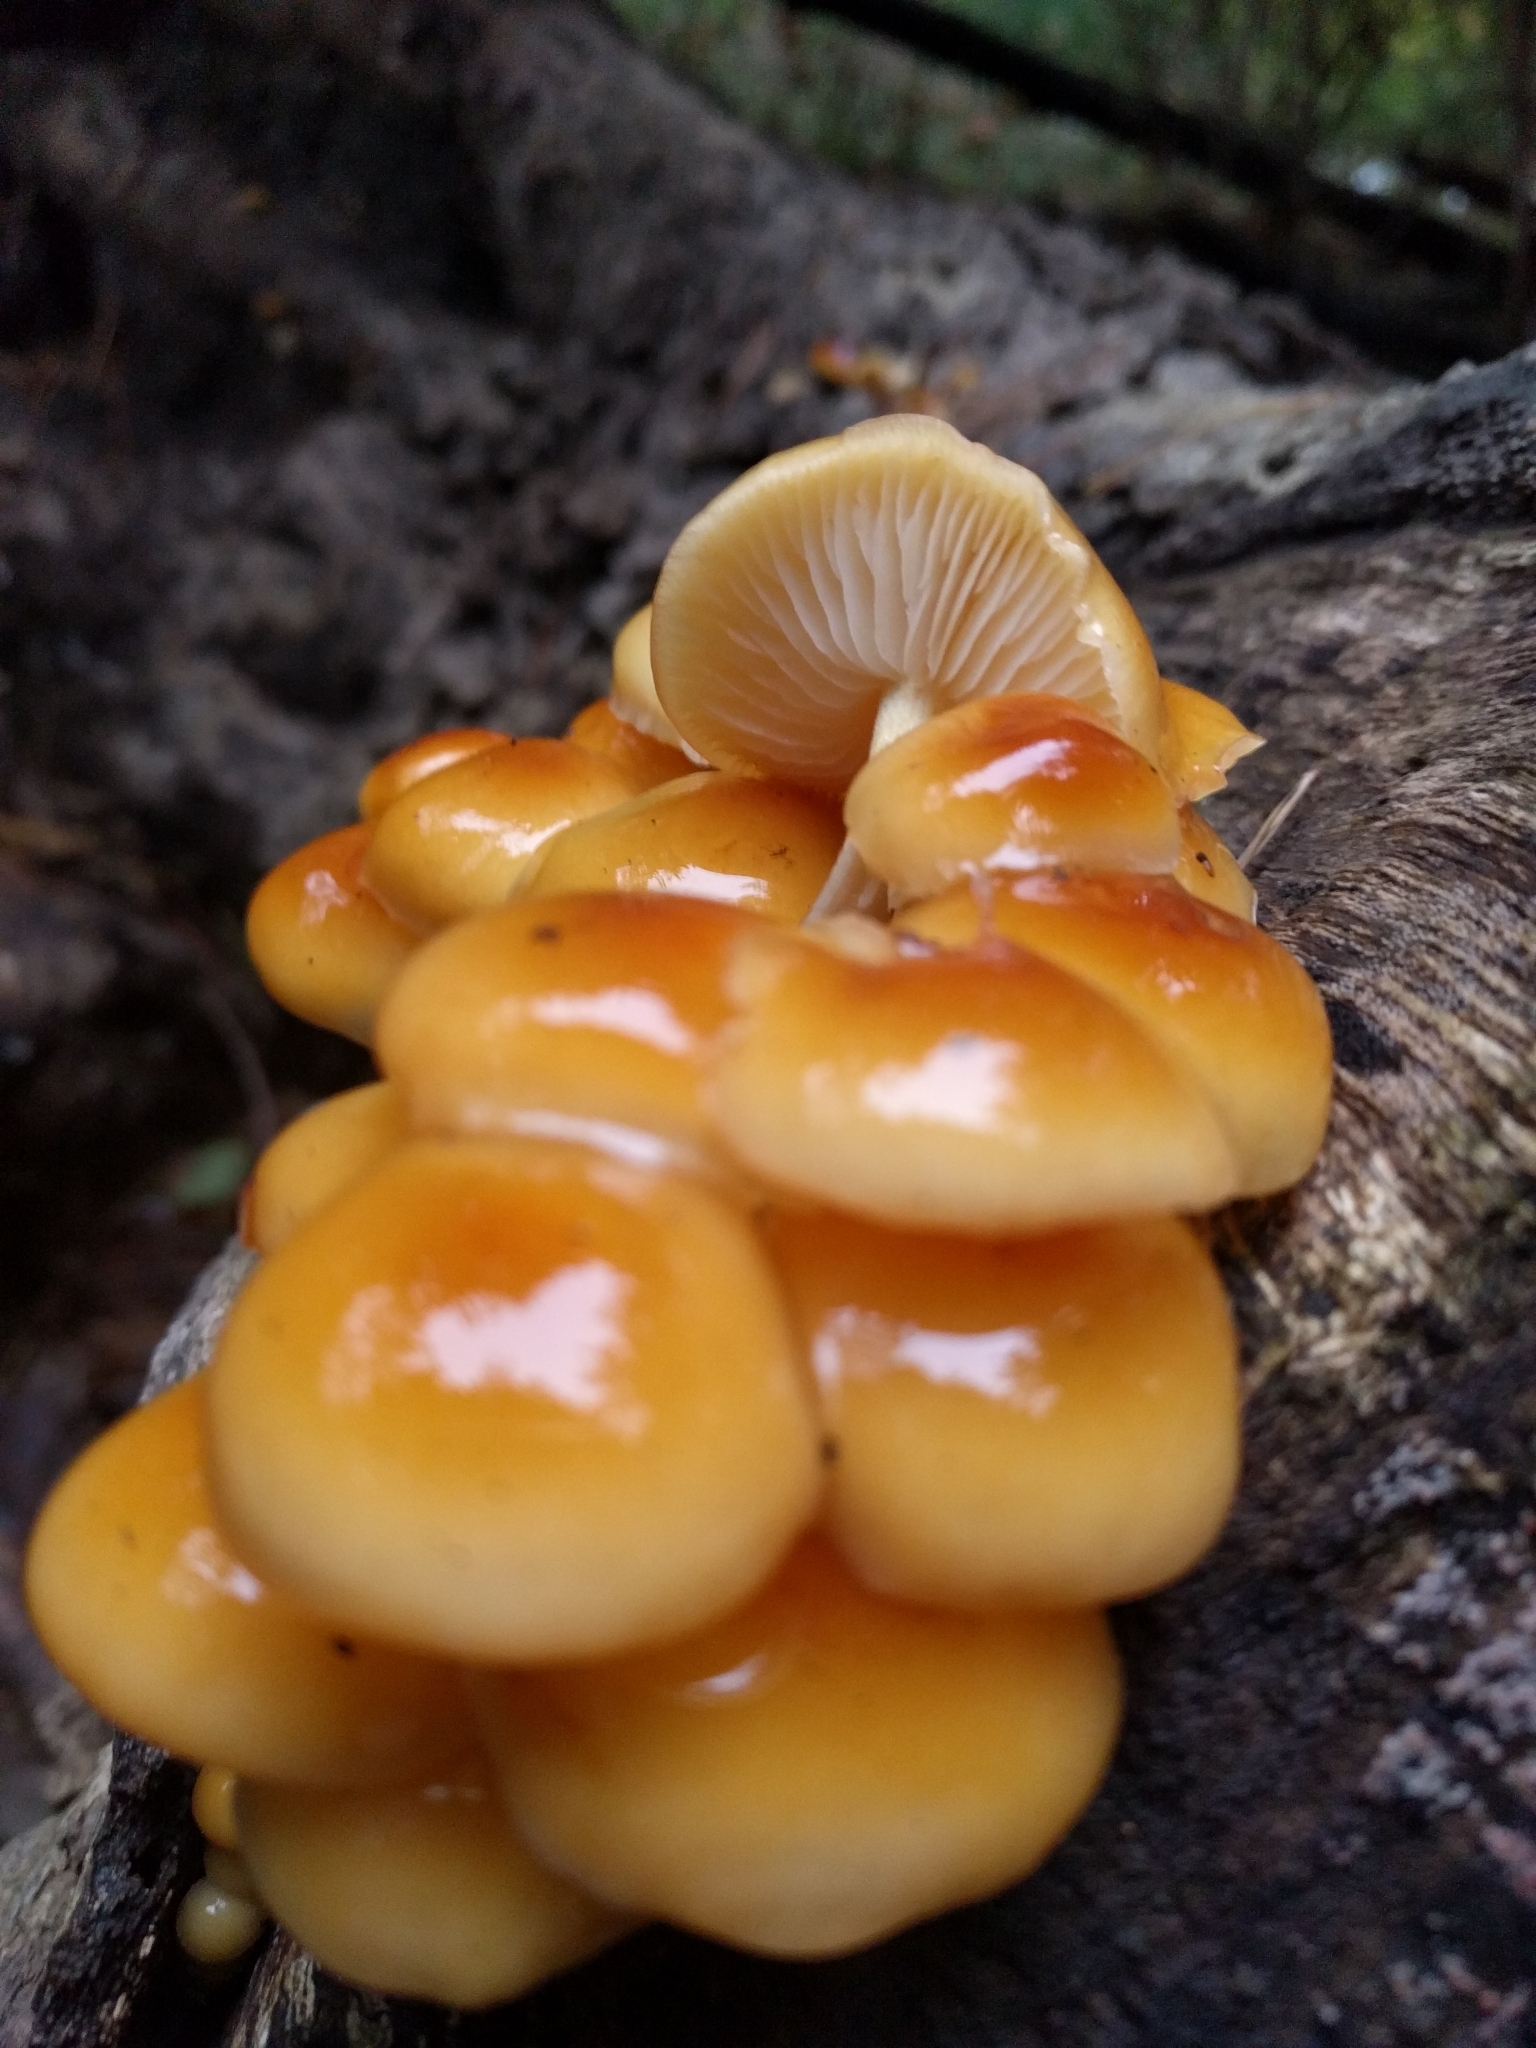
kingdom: Fungi
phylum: Basidiomycota
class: Agaricomycetes
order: Agaricales
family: Physalacriaceae
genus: Flammulina
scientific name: Flammulina velutipes
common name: Velvet shank
